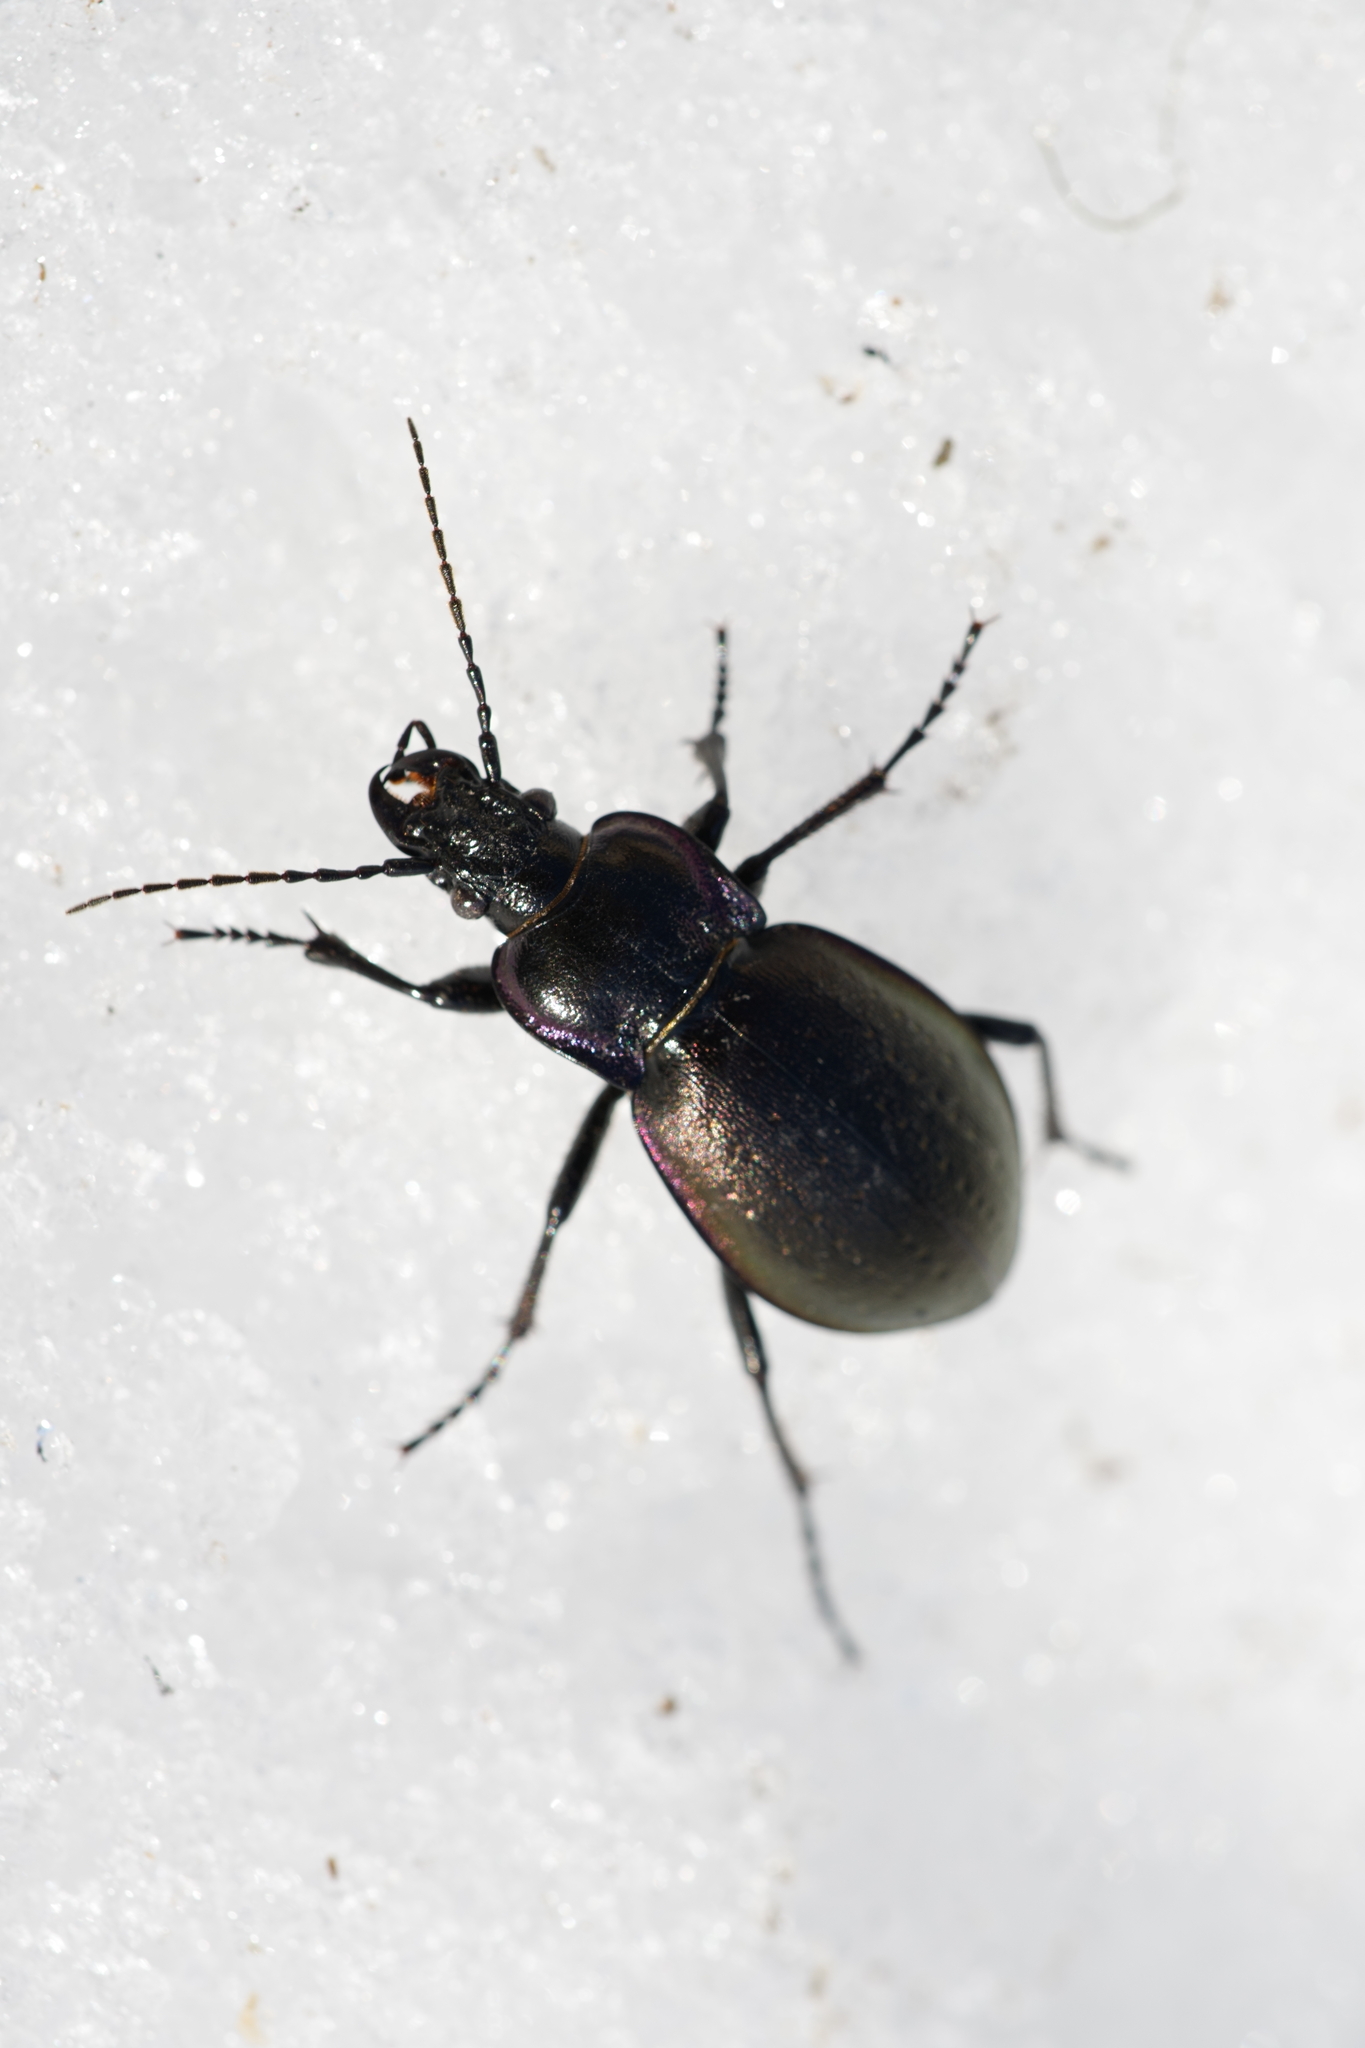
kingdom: Animalia
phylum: Arthropoda
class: Insecta
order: Coleoptera
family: Carabidae
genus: Carabus
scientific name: Carabus nemoralis
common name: European ground beetle
